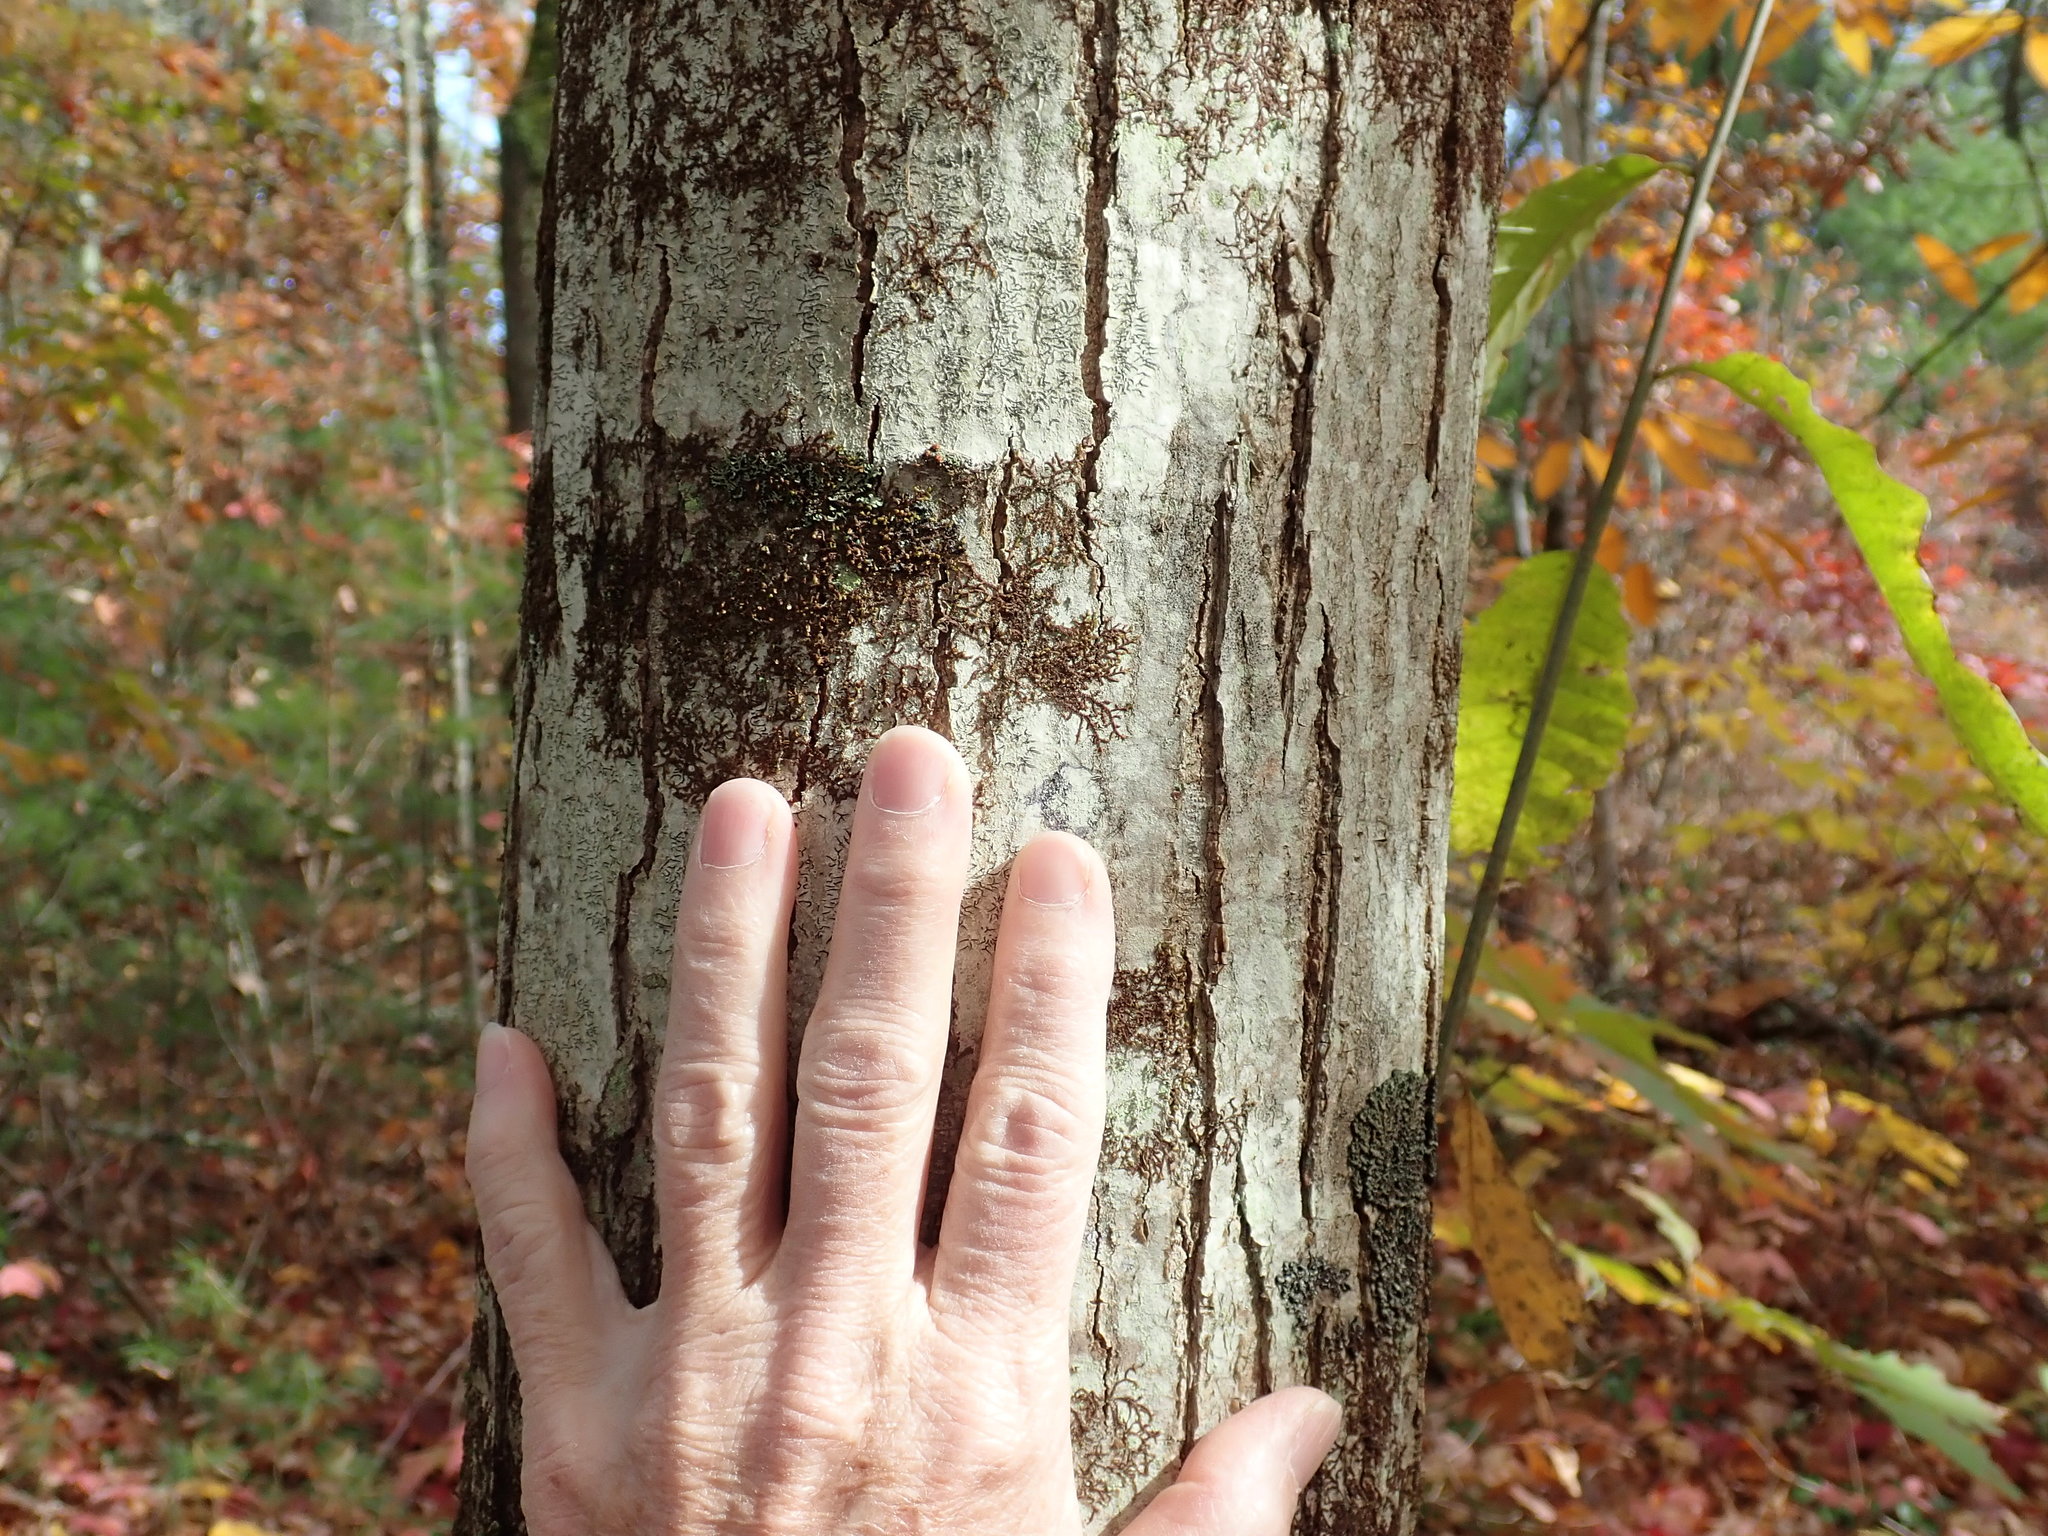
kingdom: Plantae
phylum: Tracheophyta
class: Magnoliopsida
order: Fagales
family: Fagaceae
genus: Castanea
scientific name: Castanea dentata
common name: American chestnut
